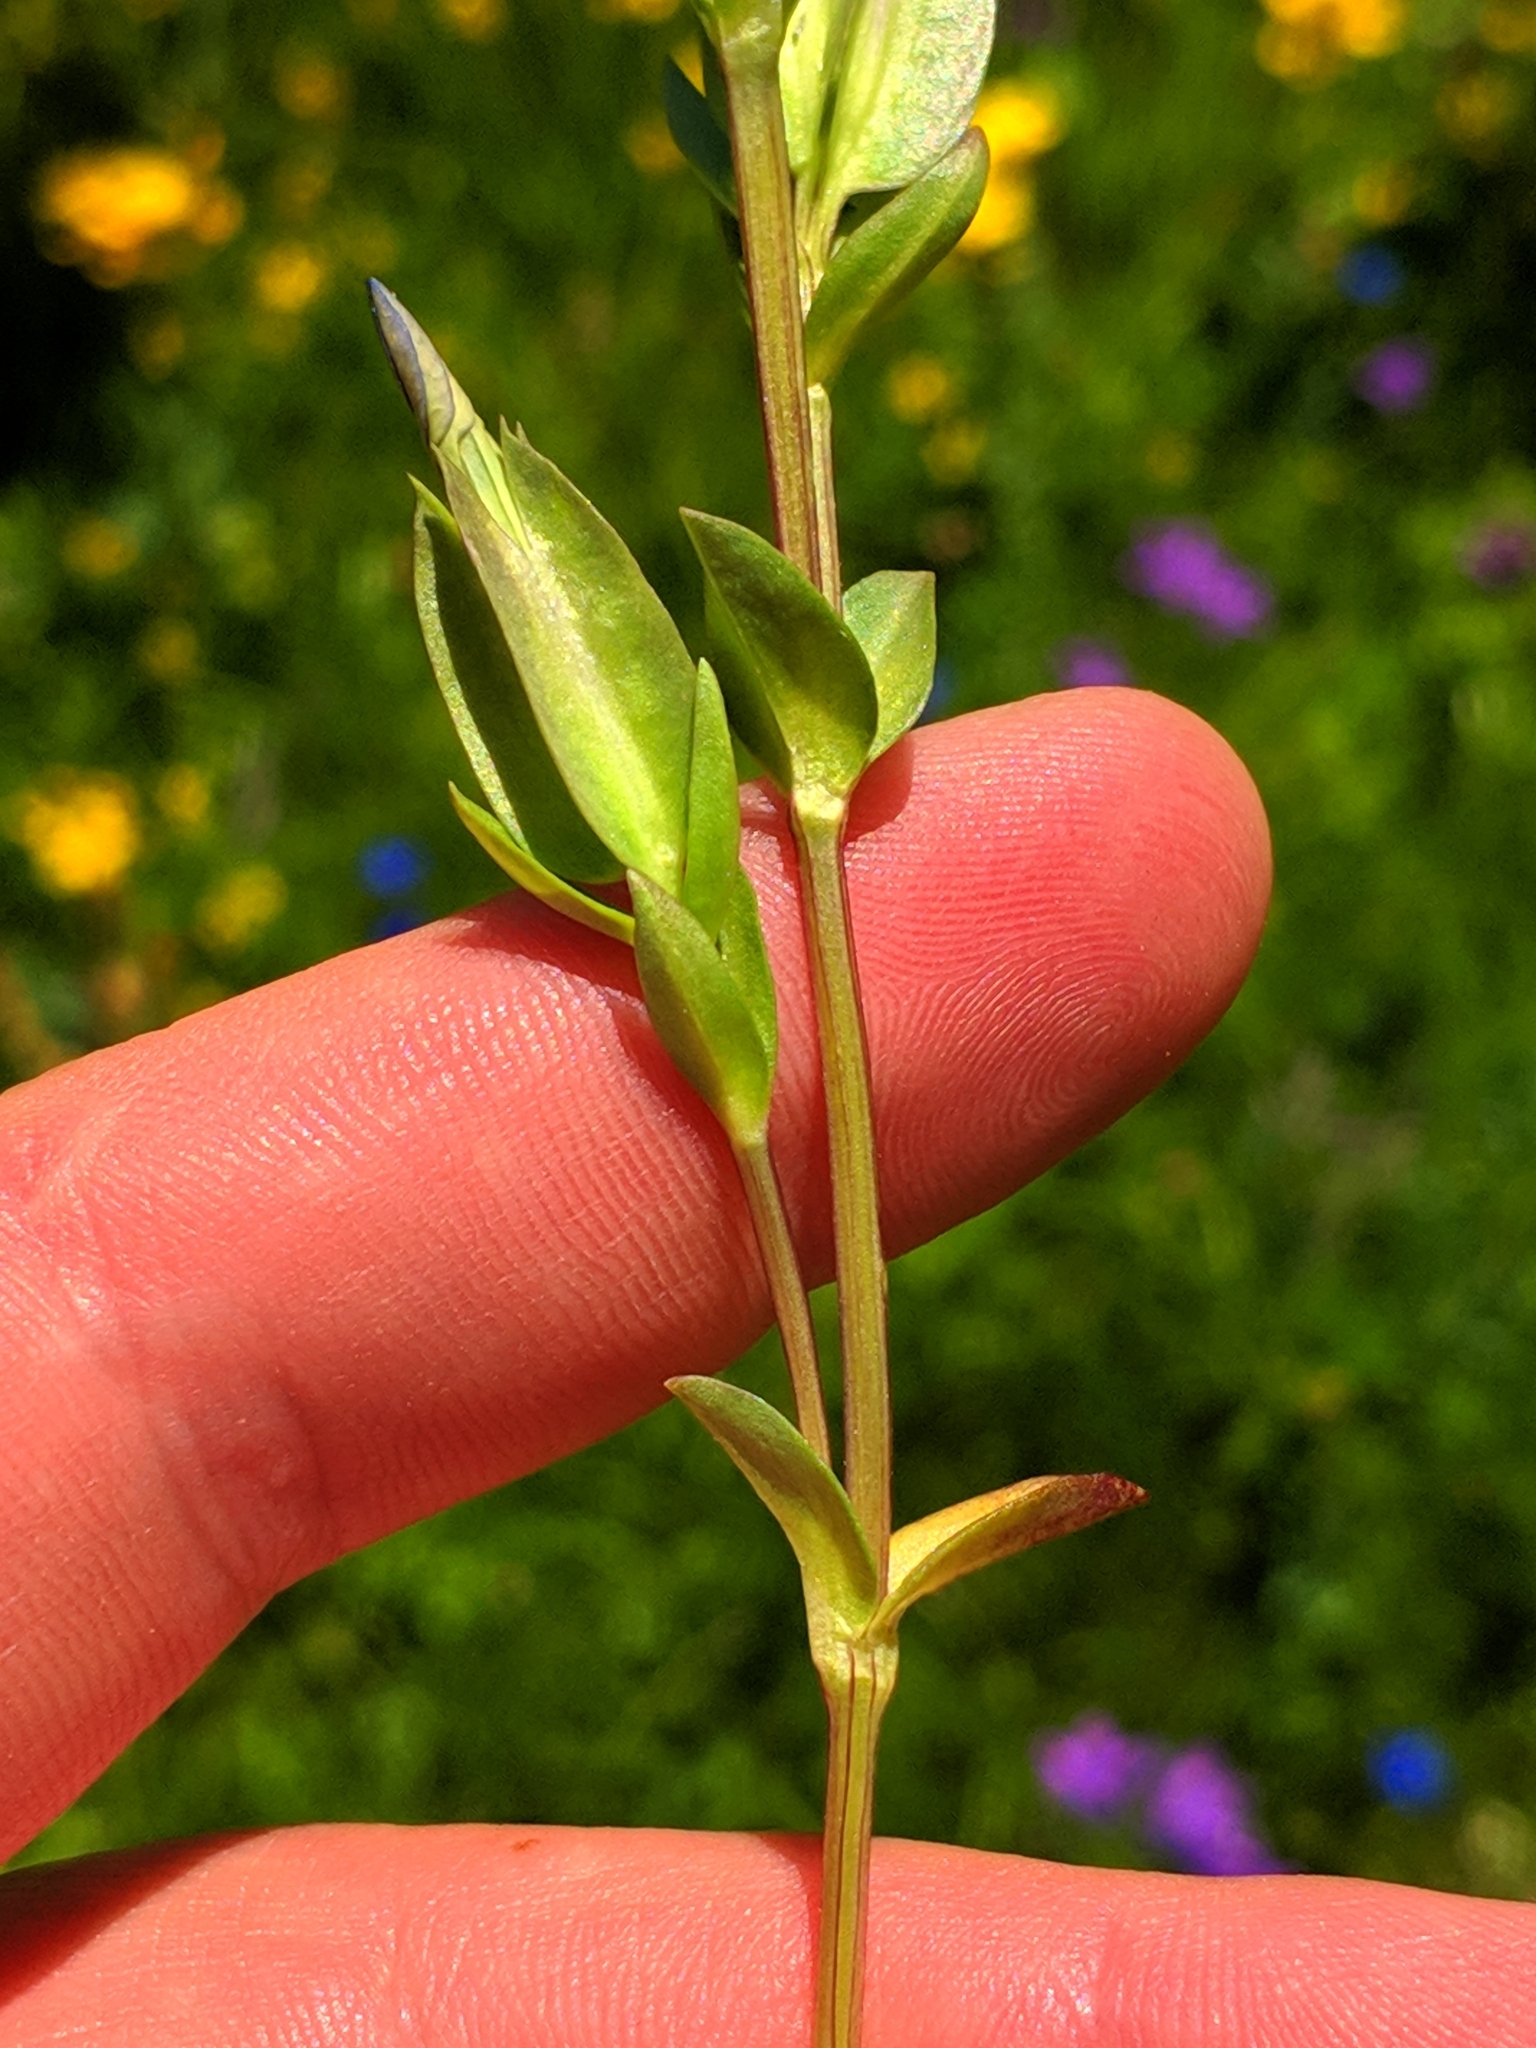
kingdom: Plantae
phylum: Tracheophyta
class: Magnoliopsida
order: Gentianales
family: Gentianaceae
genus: Gentiana
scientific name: Gentiana utriculosa
